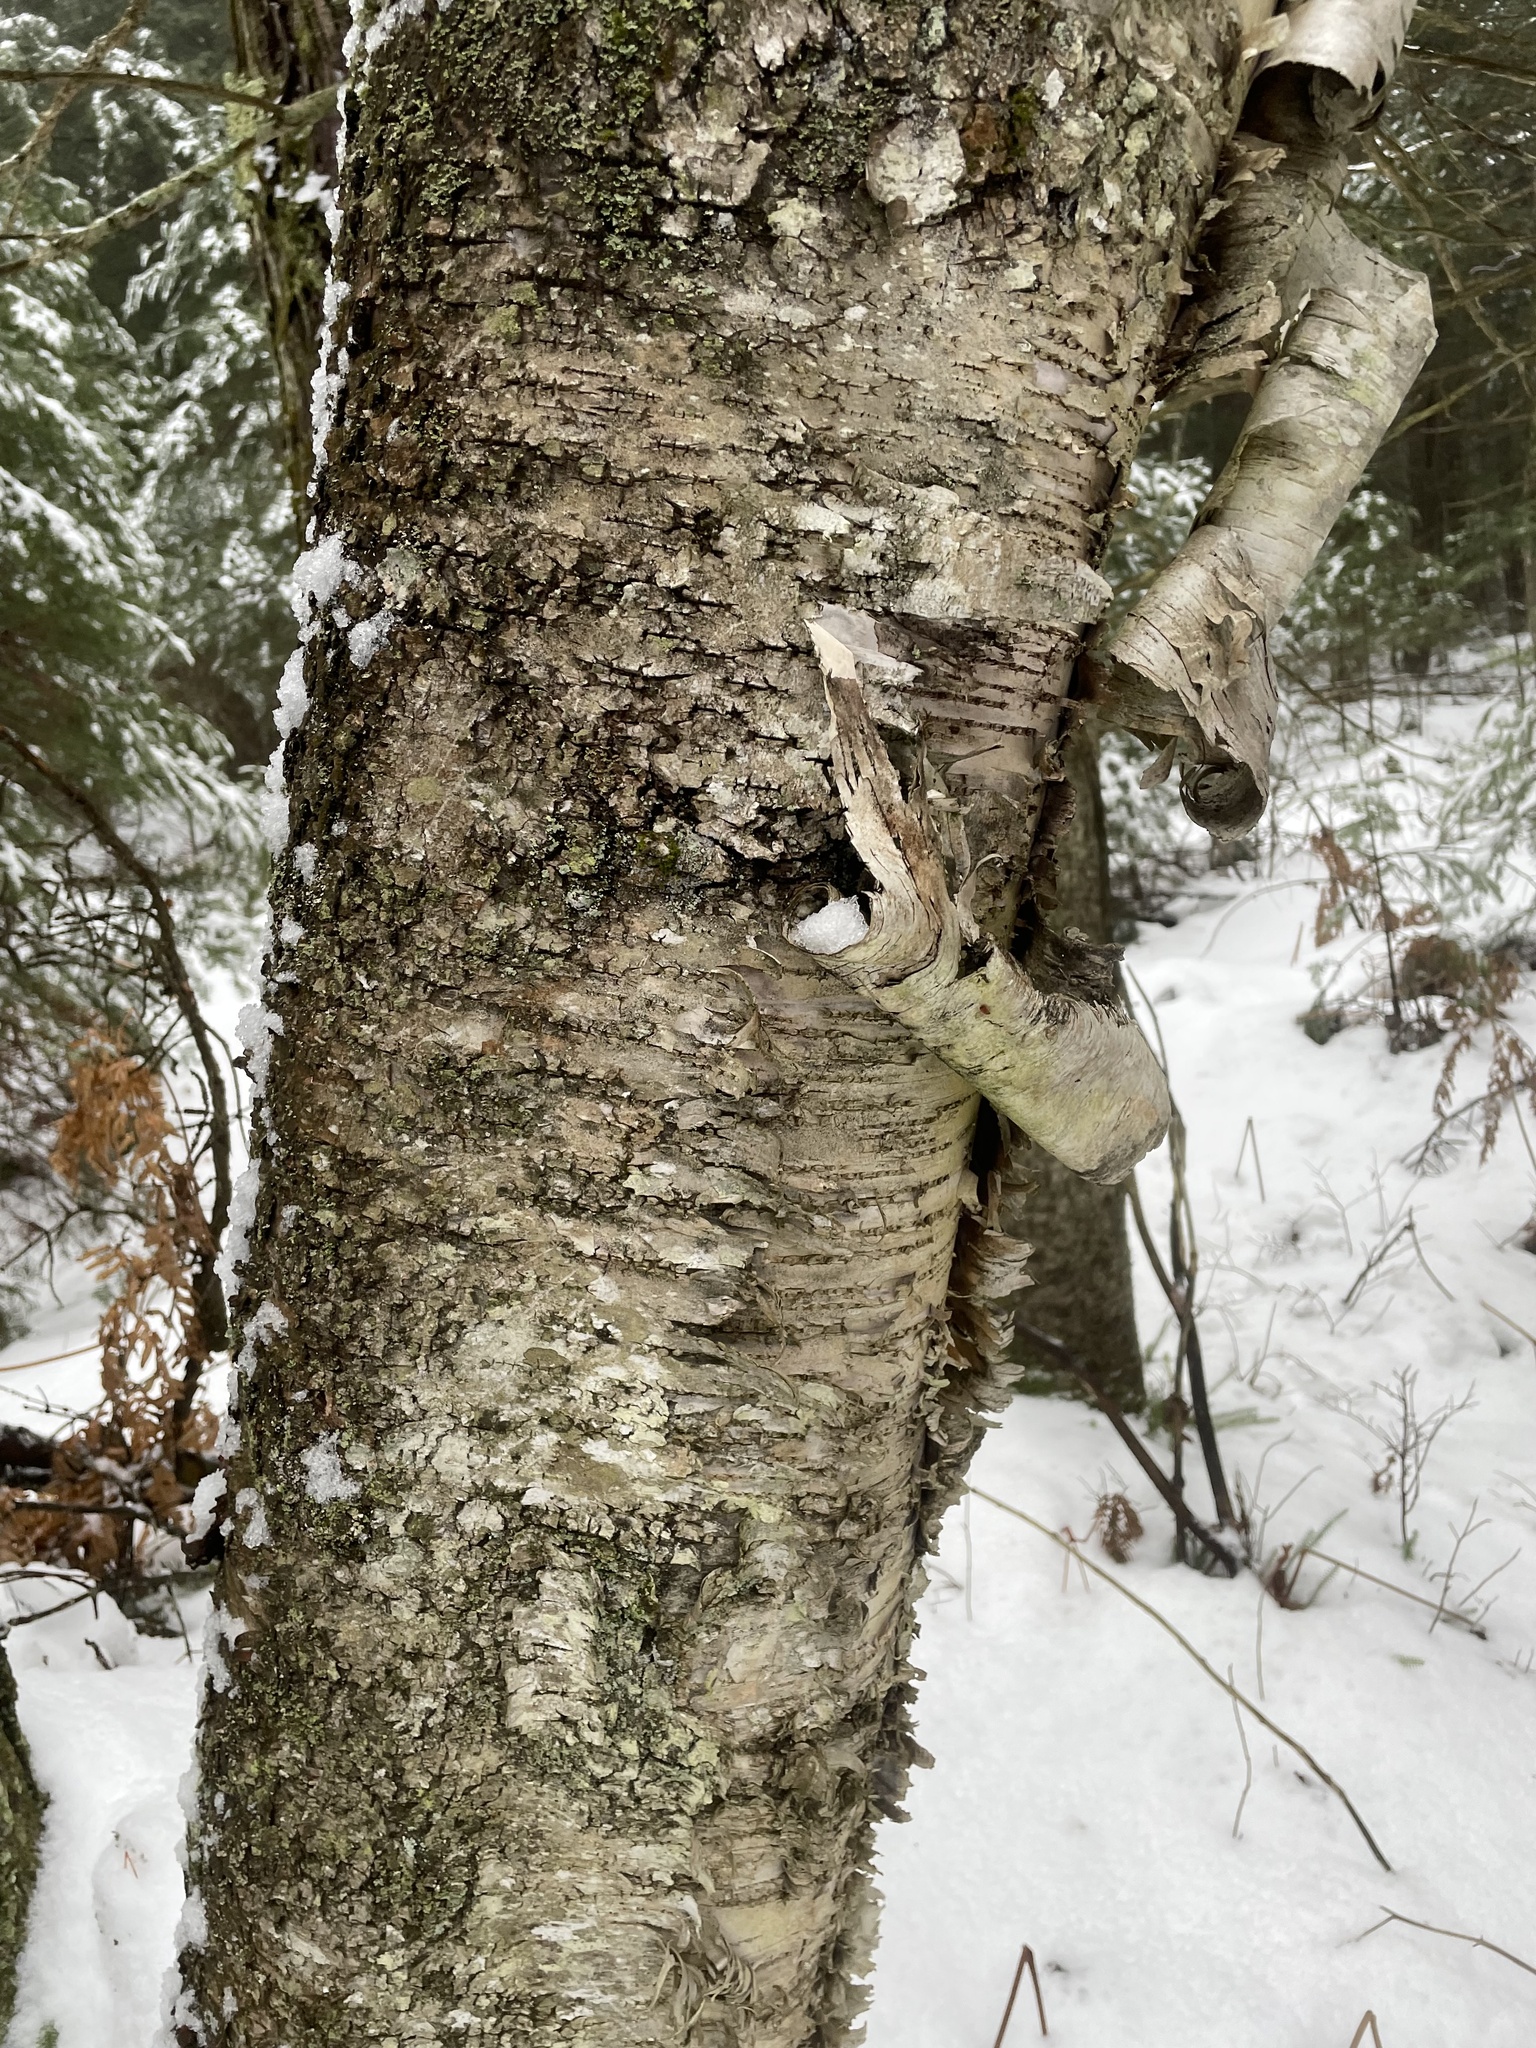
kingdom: Plantae
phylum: Tracheophyta
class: Magnoliopsida
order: Fagales
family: Betulaceae
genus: Betula
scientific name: Betula alleghaniensis
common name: Yellow birch
